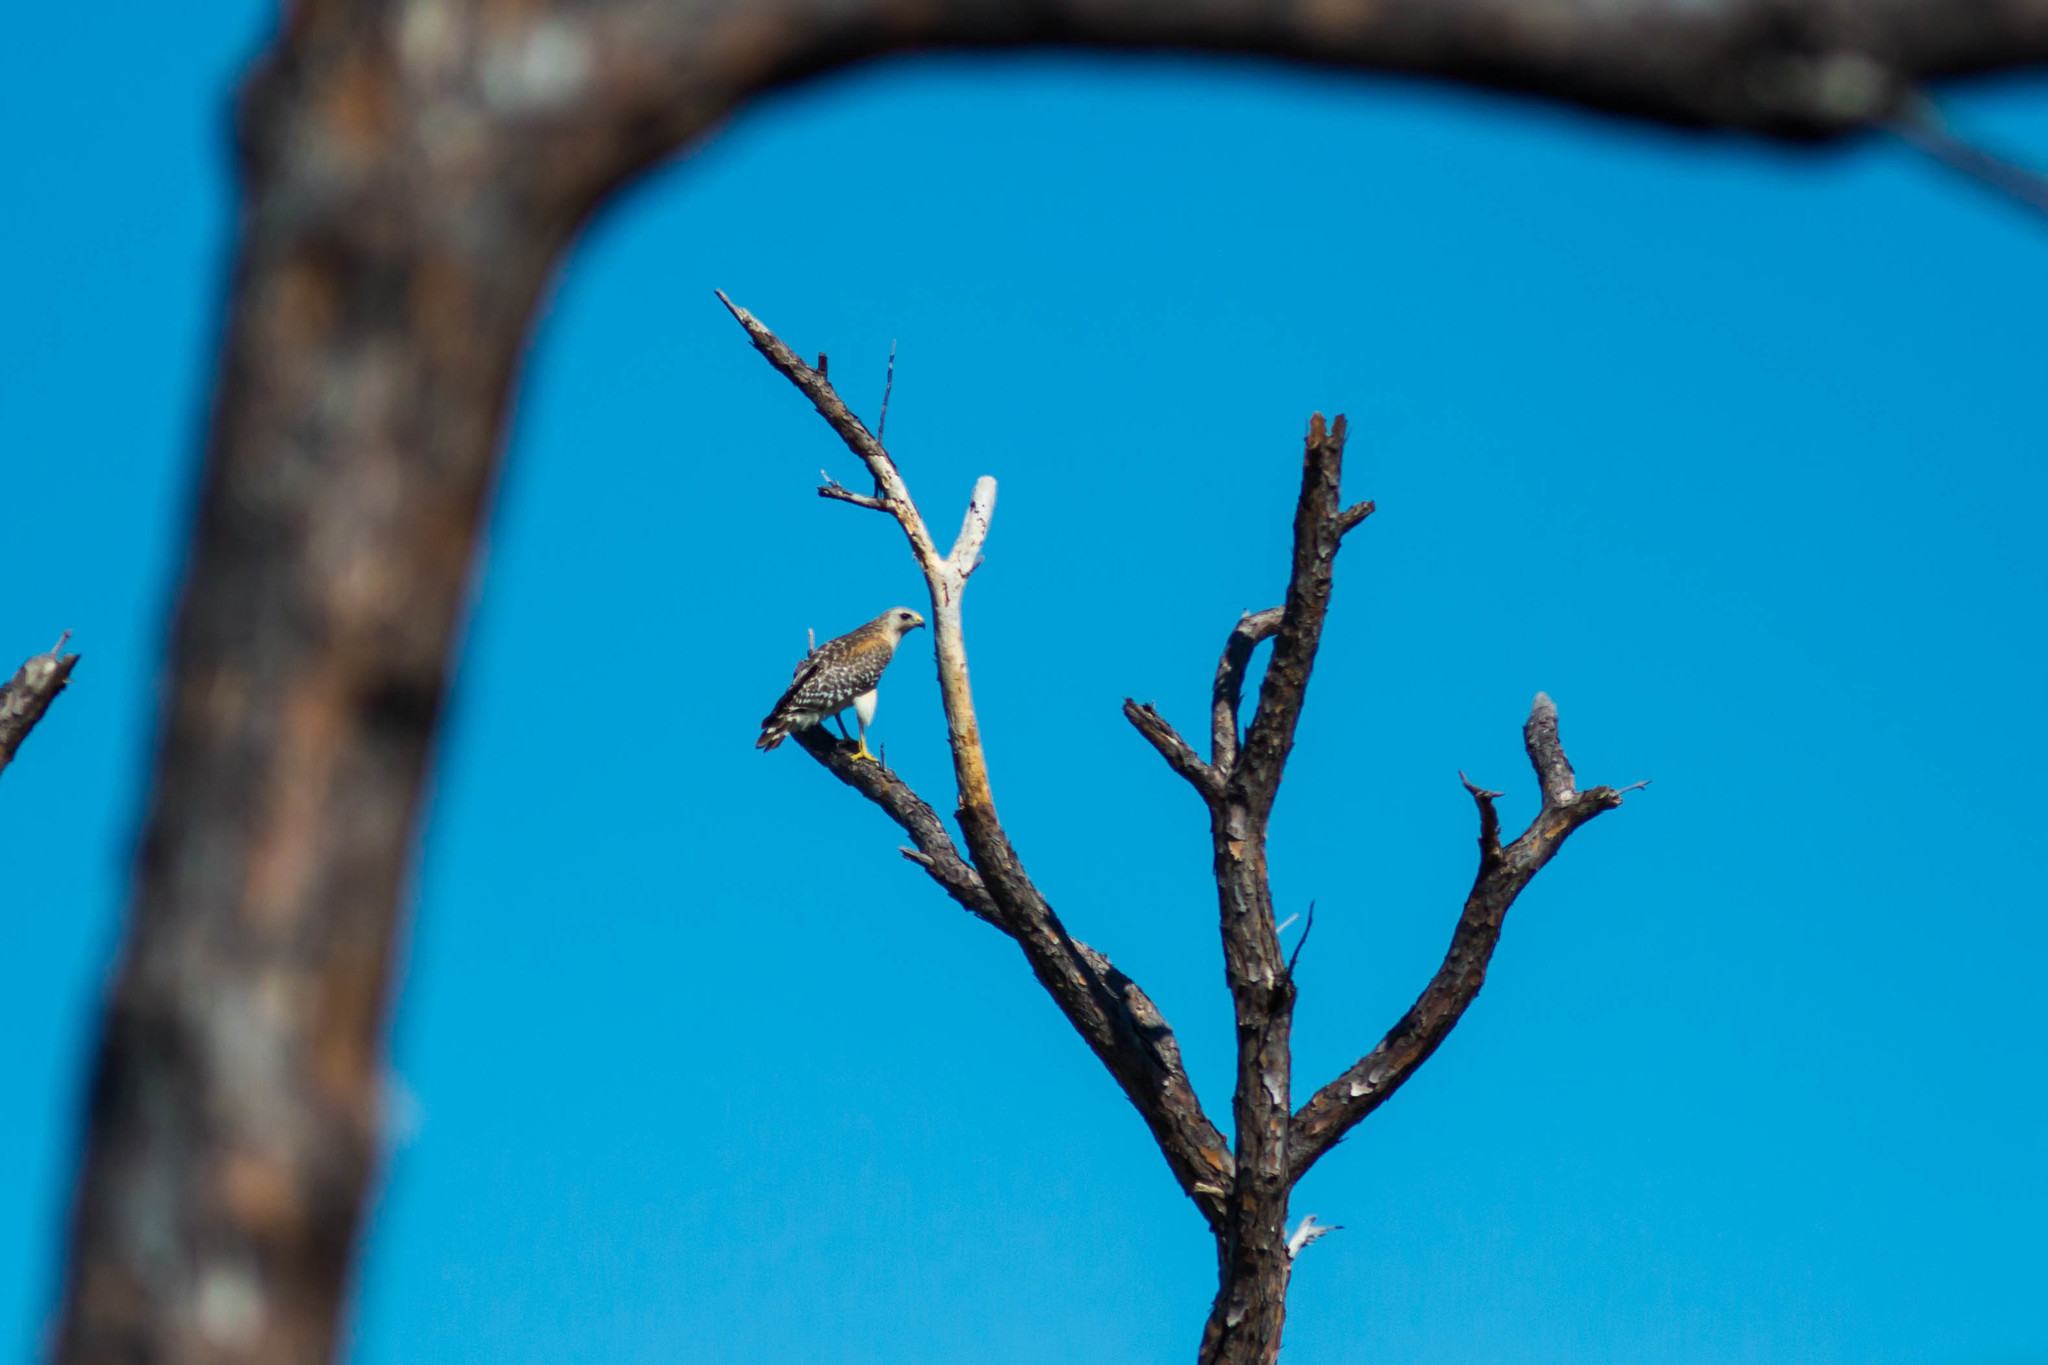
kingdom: Animalia
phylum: Chordata
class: Aves
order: Accipitriformes
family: Accipitridae
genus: Buteo
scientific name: Buteo lineatus
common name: Red-shouldered hawk
